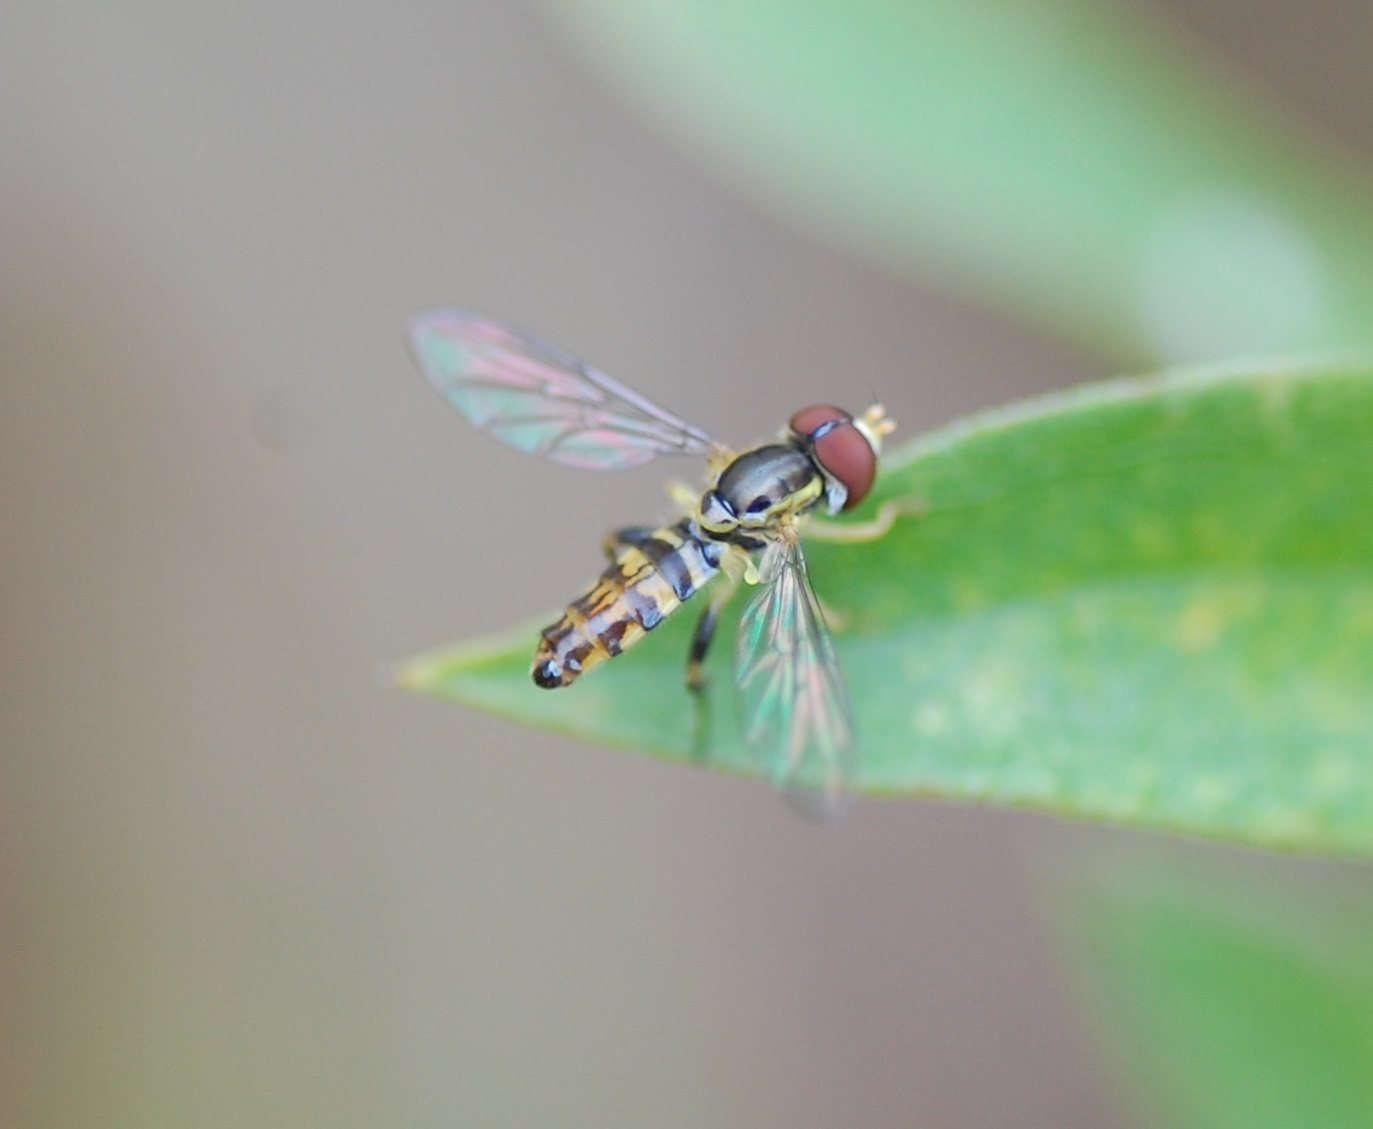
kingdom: Animalia
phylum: Arthropoda
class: Insecta
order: Diptera
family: Syrphidae
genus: Toxomerus
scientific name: Toxomerus geminatus
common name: Eastern calligrapher
